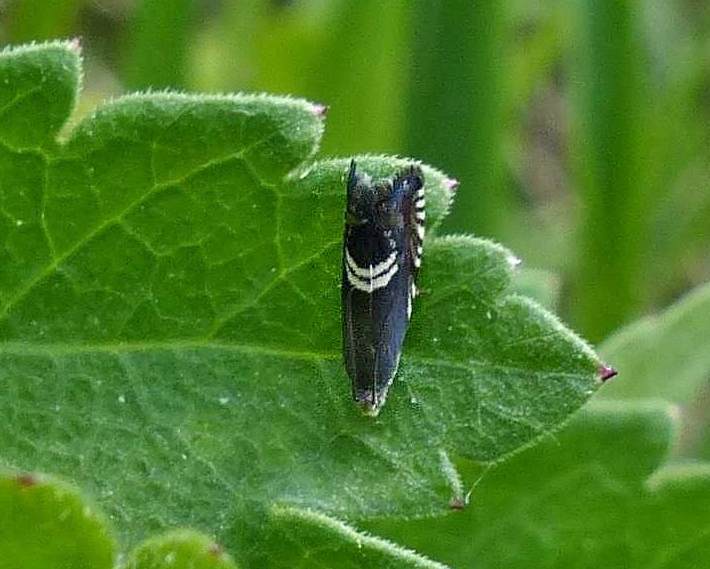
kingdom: Animalia
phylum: Arthropoda
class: Insecta
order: Lepidoptera
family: Tortricidae
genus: Grapholita
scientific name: Grapholita interstinctana
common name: Clover head caterpillar moth
